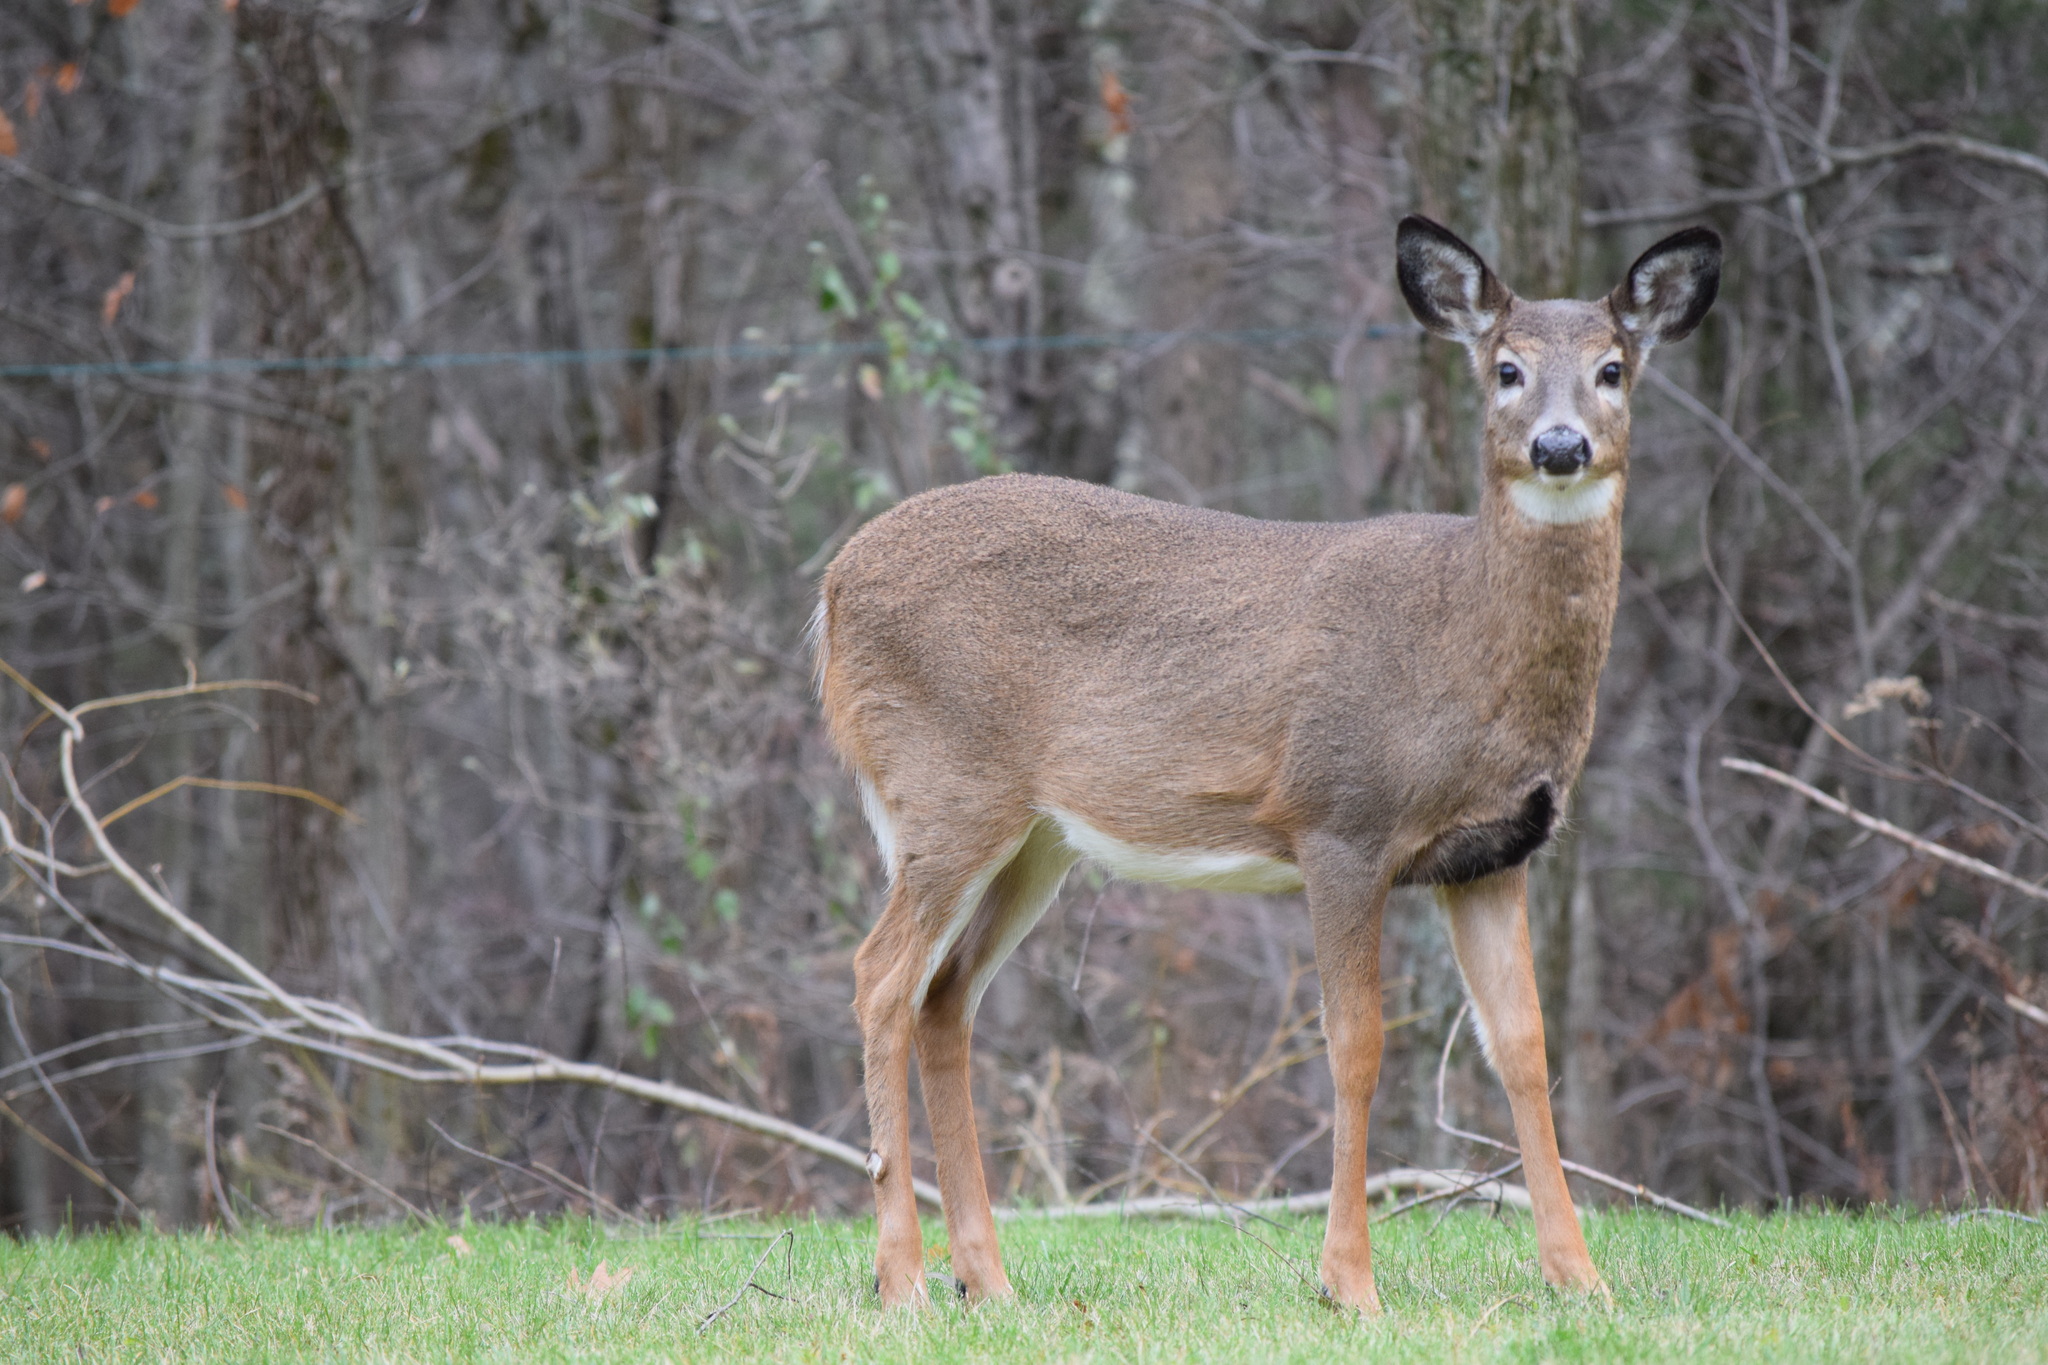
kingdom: Animalia
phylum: Chordata
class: Mammalia
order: Artiodactyla
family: Cervidae
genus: Odocoileus
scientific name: Odocoileus virginianus
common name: White-tailed deer
